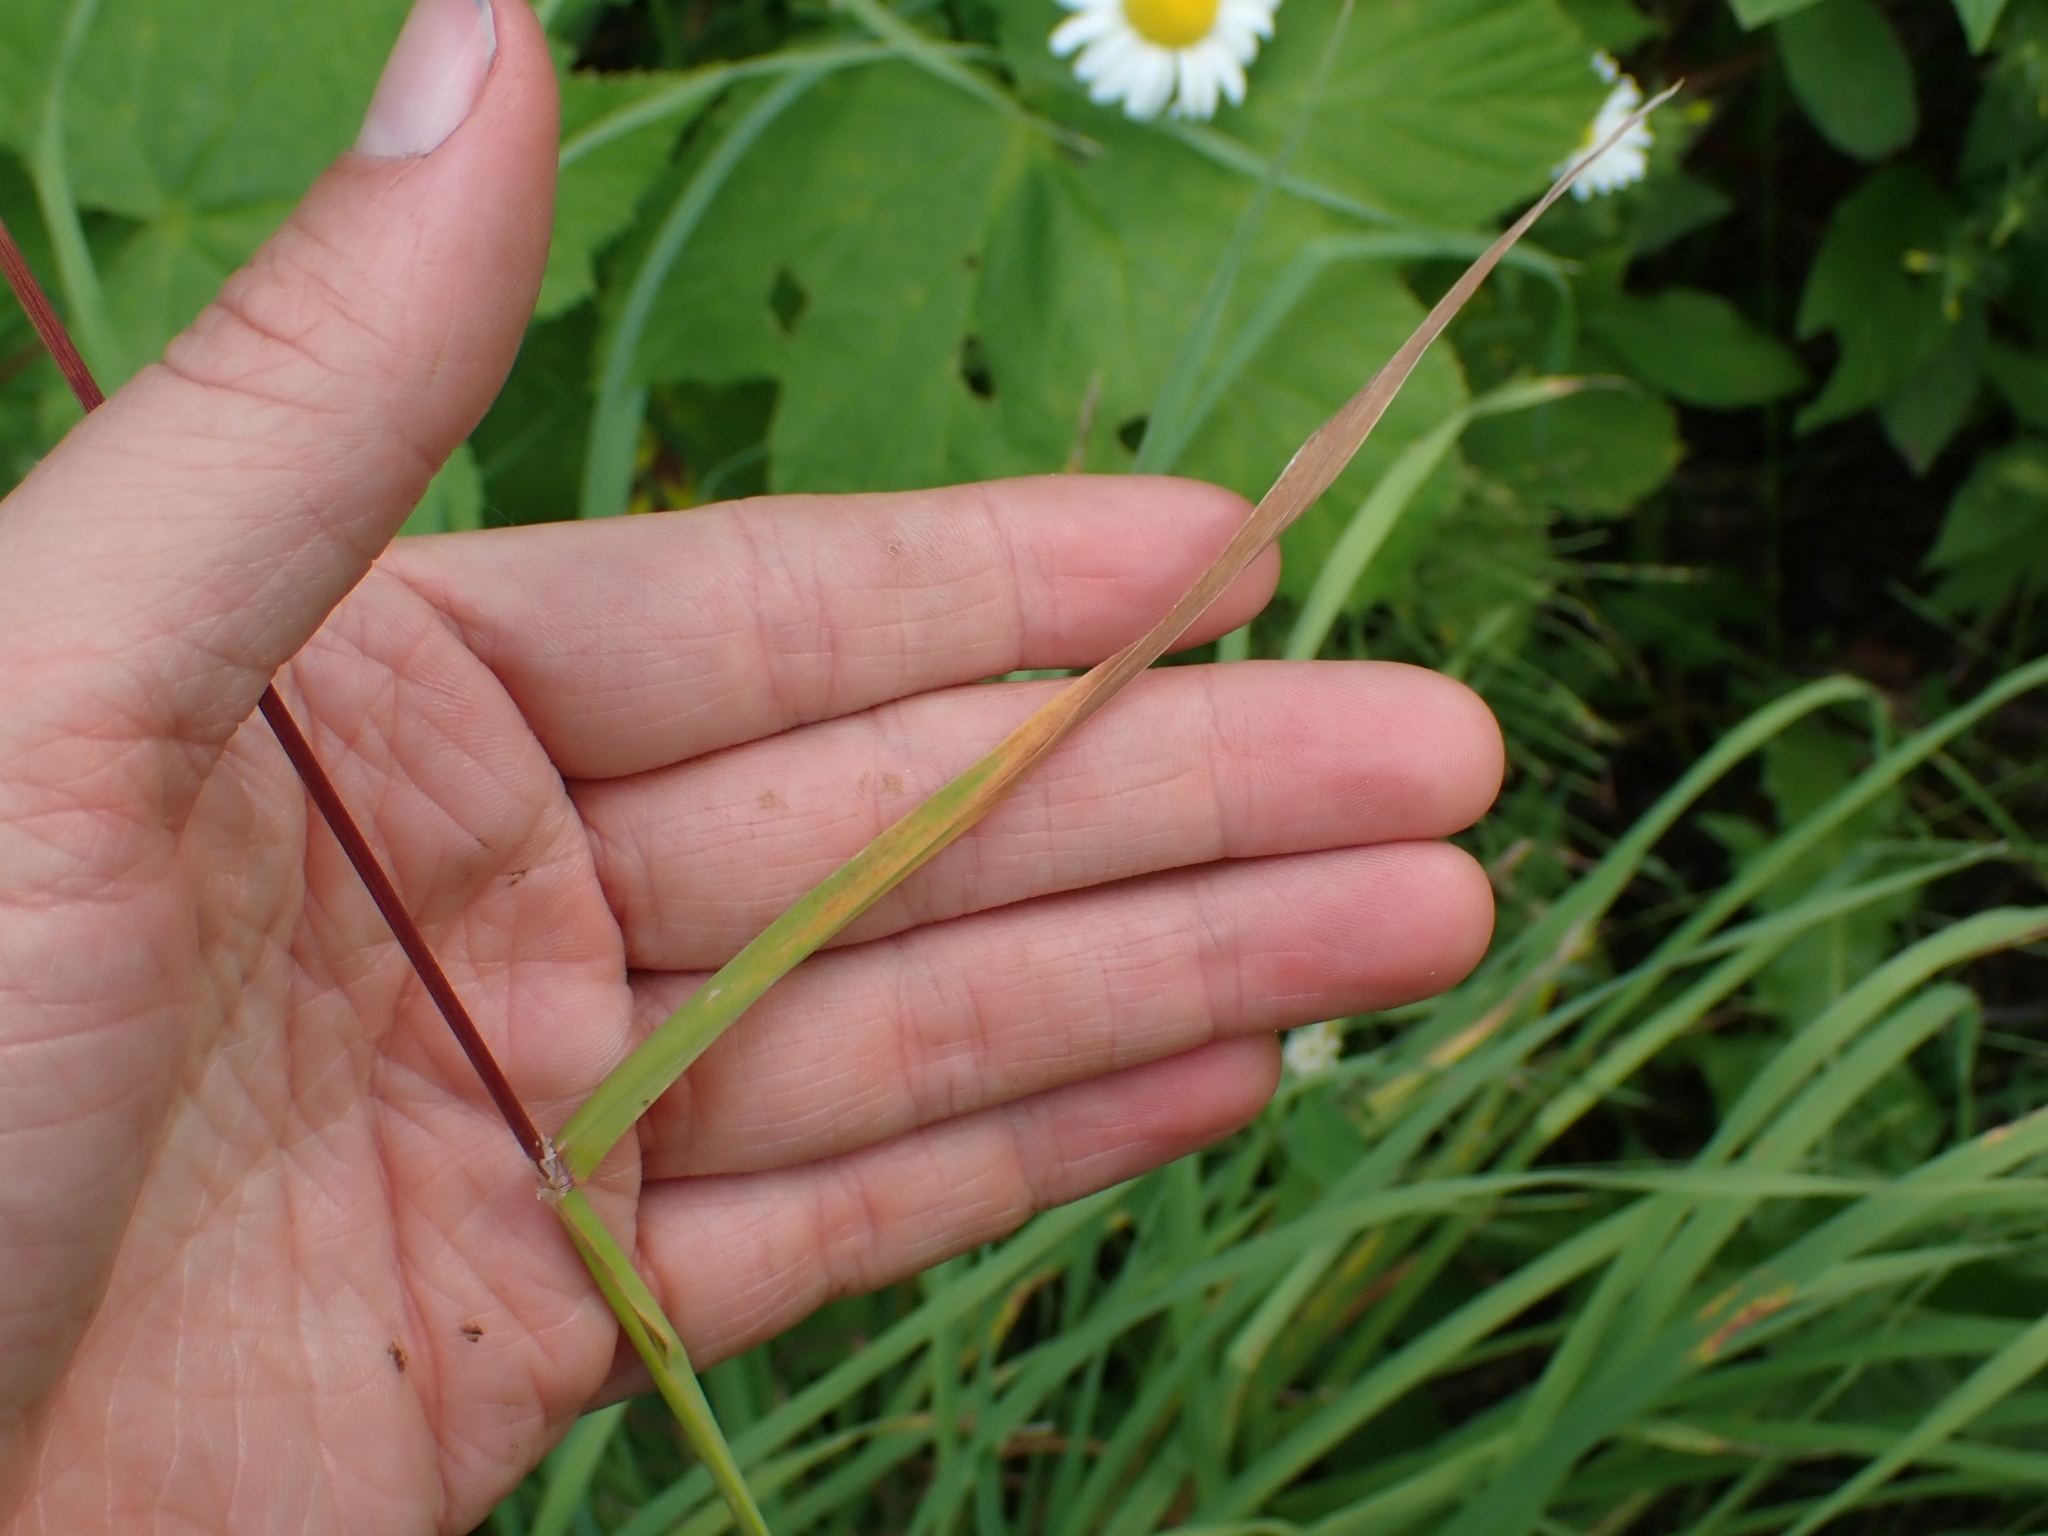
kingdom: Plantae
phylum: Tracheophyta
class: Liliopsida
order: Poales
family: Poaceae
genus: Dactylis
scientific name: Dactylis glomerata
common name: Orchardgrass
